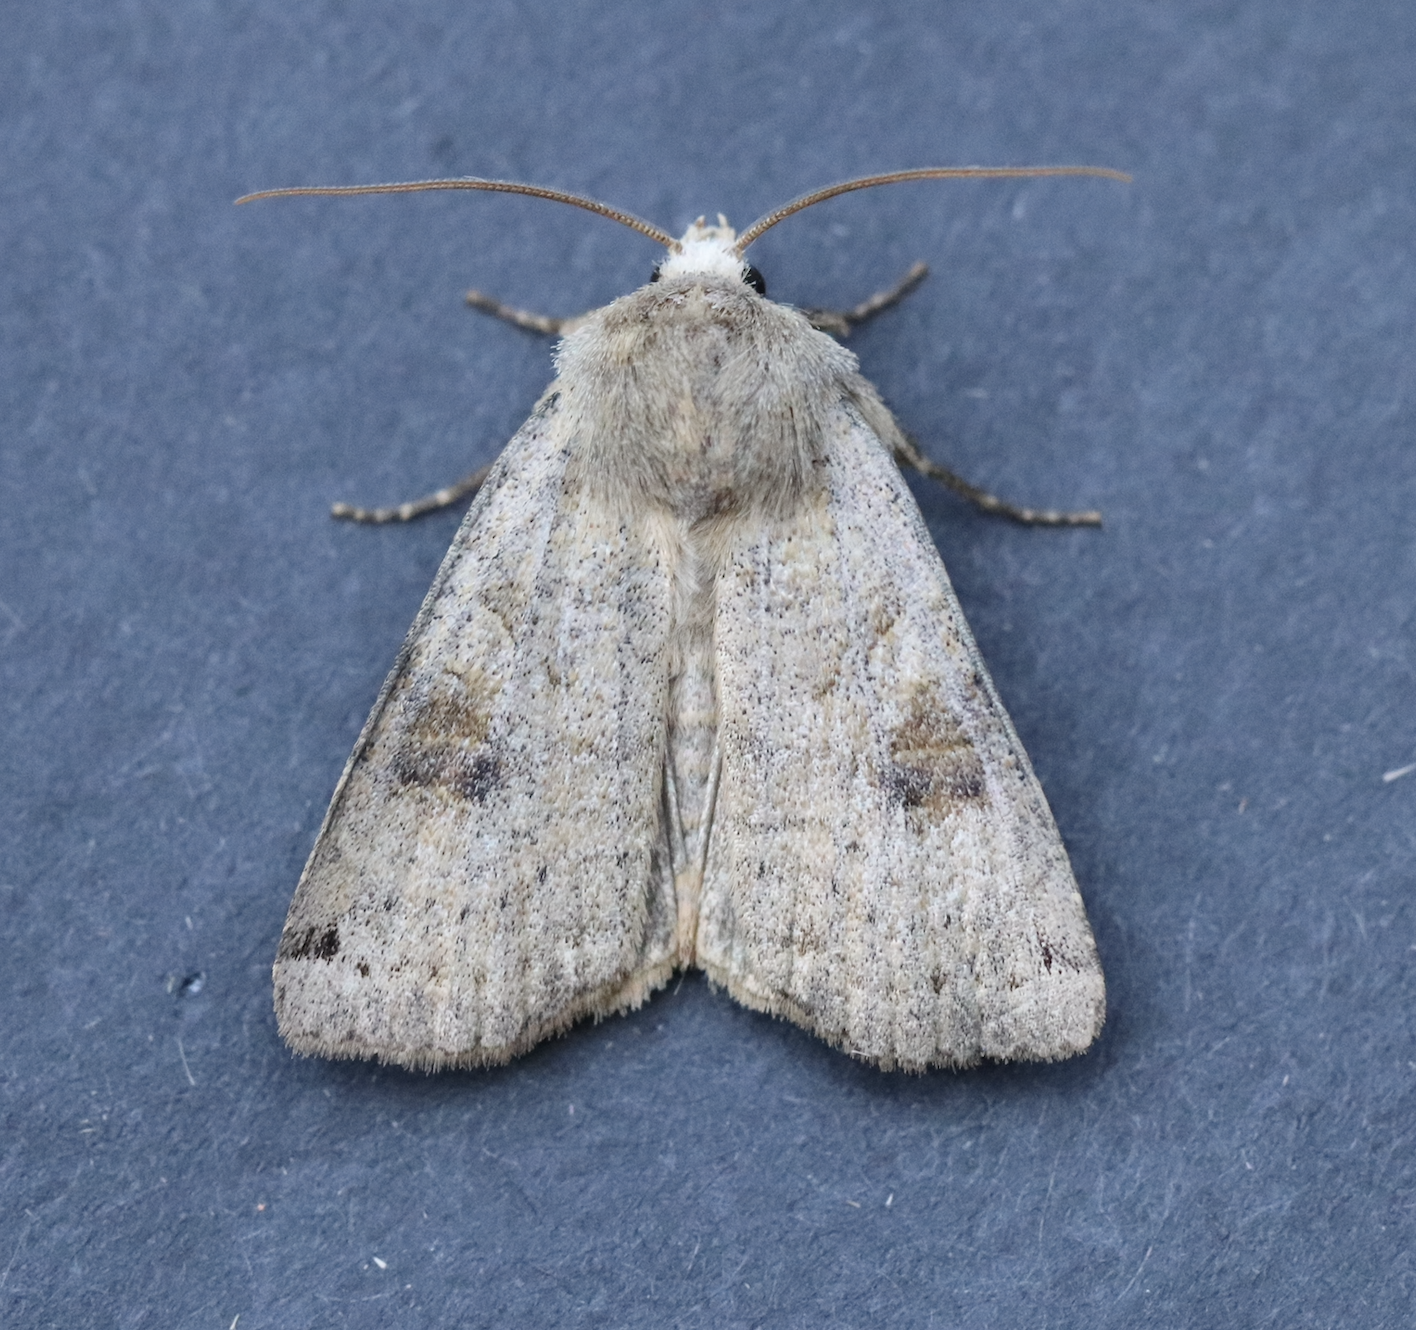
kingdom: Animalia
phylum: Arthropoda
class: Insecta
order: Lepidoptera
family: Noctuidae
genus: Xestia
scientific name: Xestia smithii
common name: Smith's dart
